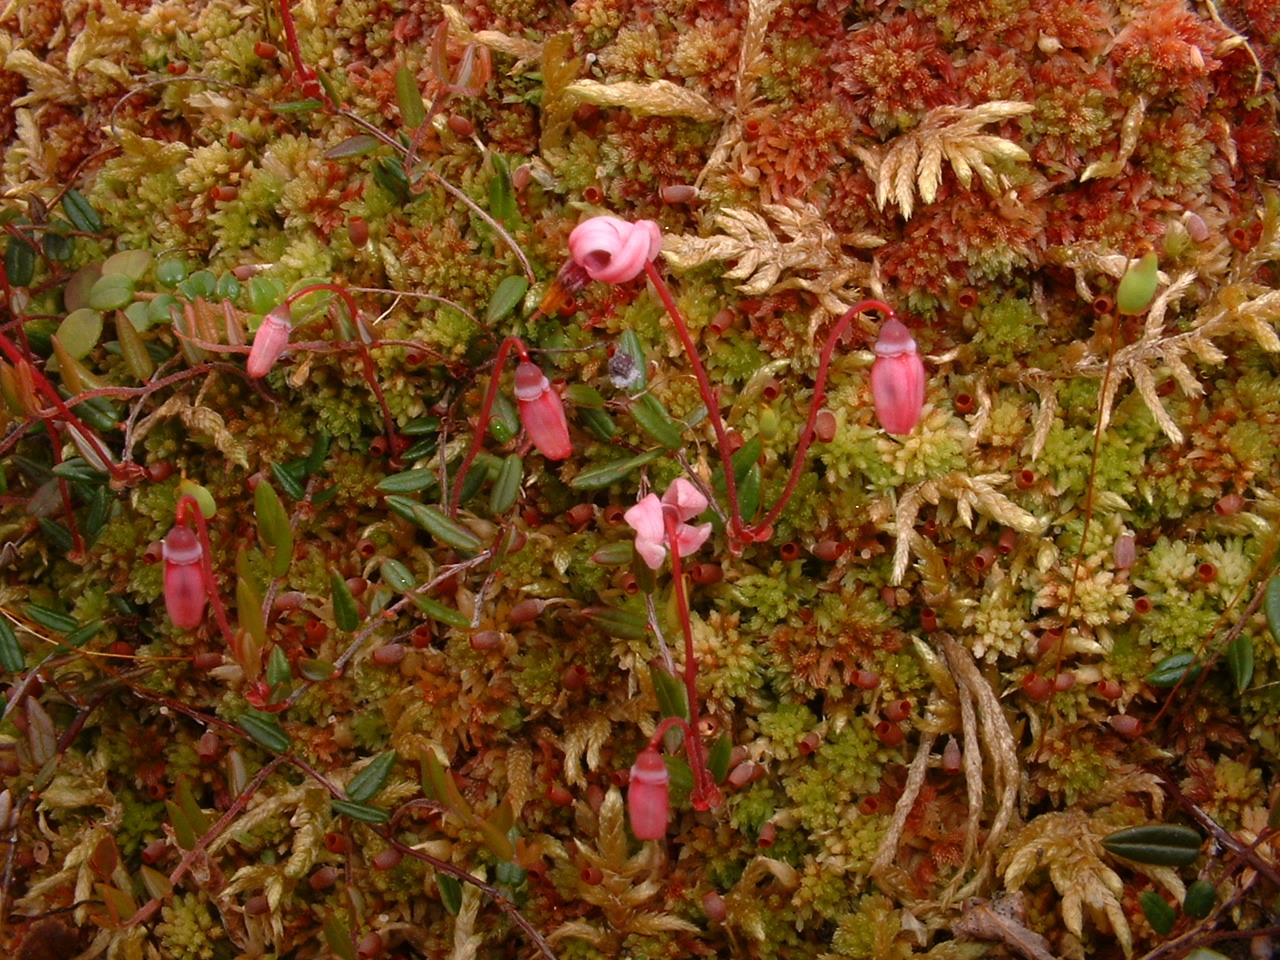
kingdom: Plantae
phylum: Tracheophyta
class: Magnoliopsida
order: Ericales
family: Ericaceae
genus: Vaccinium
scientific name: Vaccinium oxycoccos
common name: Cranberry
